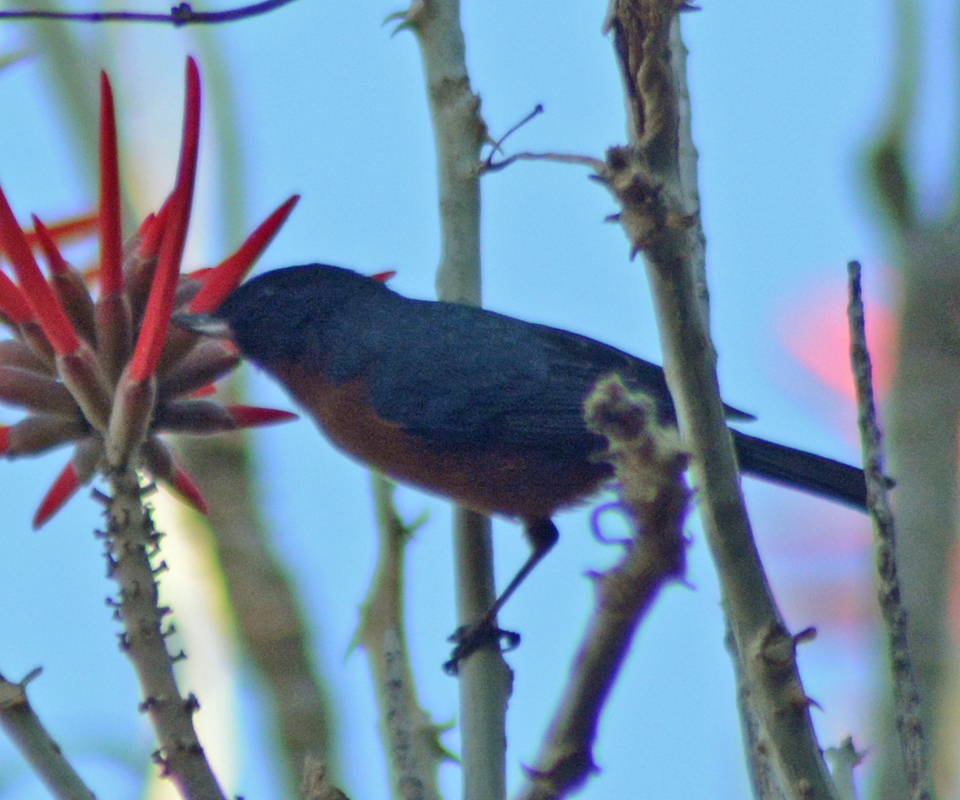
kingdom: Animalia
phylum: Chordata
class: Aves
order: Passeriformes
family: Thraupidae
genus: Diglossa
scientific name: Diglossa baritula
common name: Cinnamon-bellied flowerpiercer
